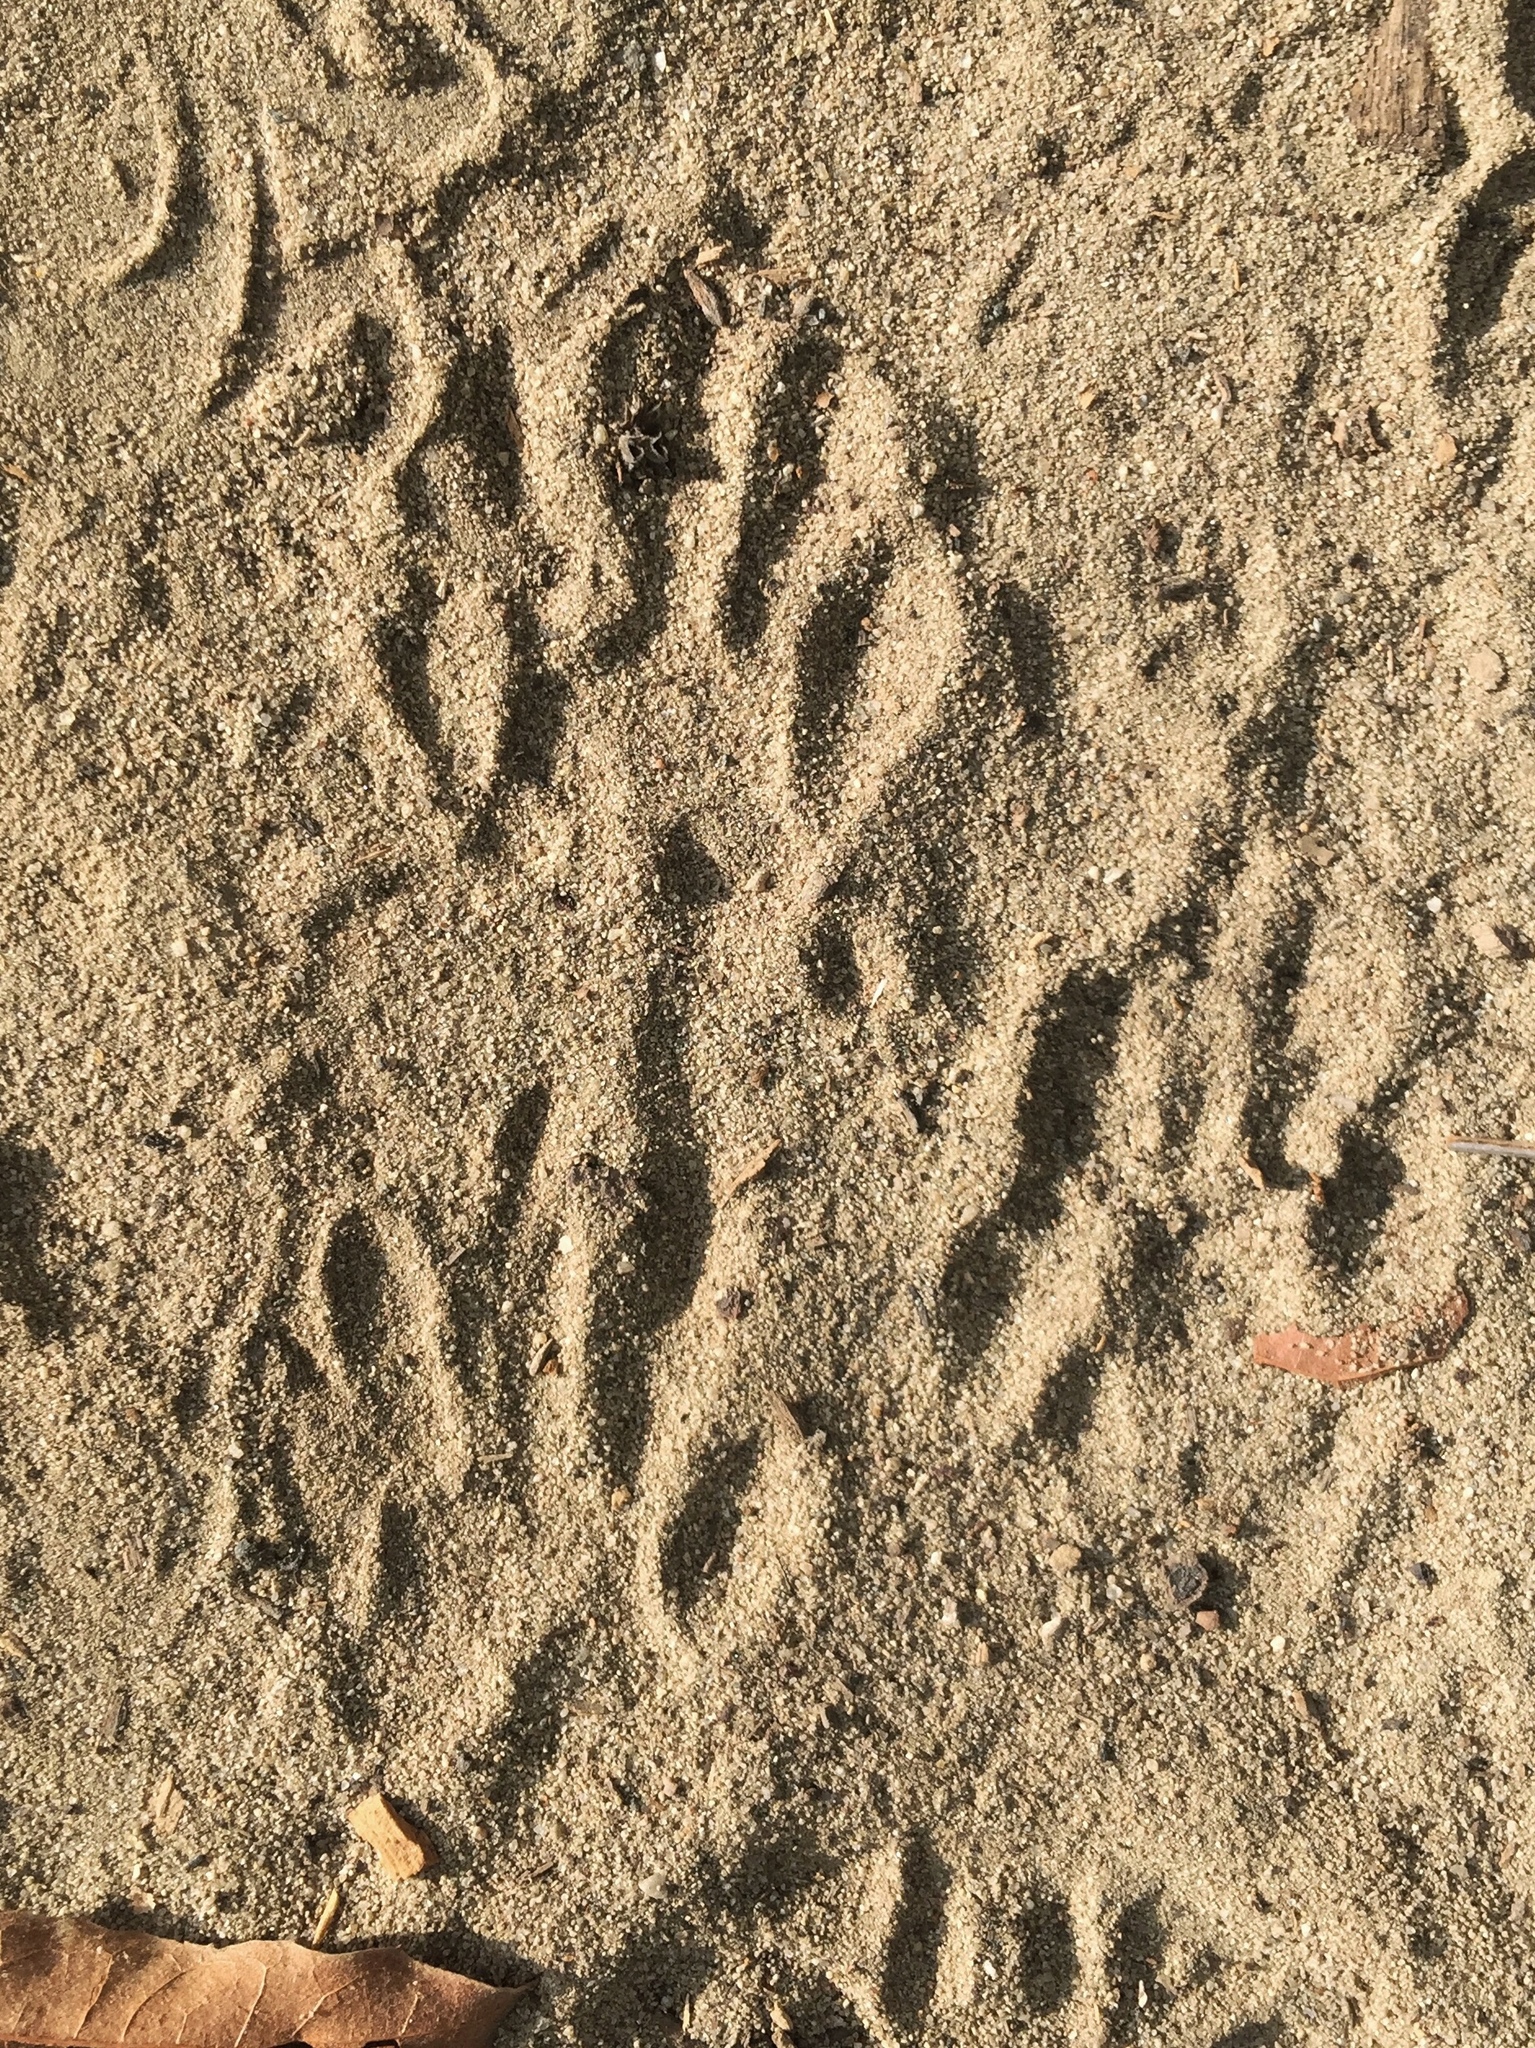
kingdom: Animalia
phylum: Chordata
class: Mammalia
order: Carnivora
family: Procyonidae
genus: Procyon
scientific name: Procyon lotor
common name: Raccoon
